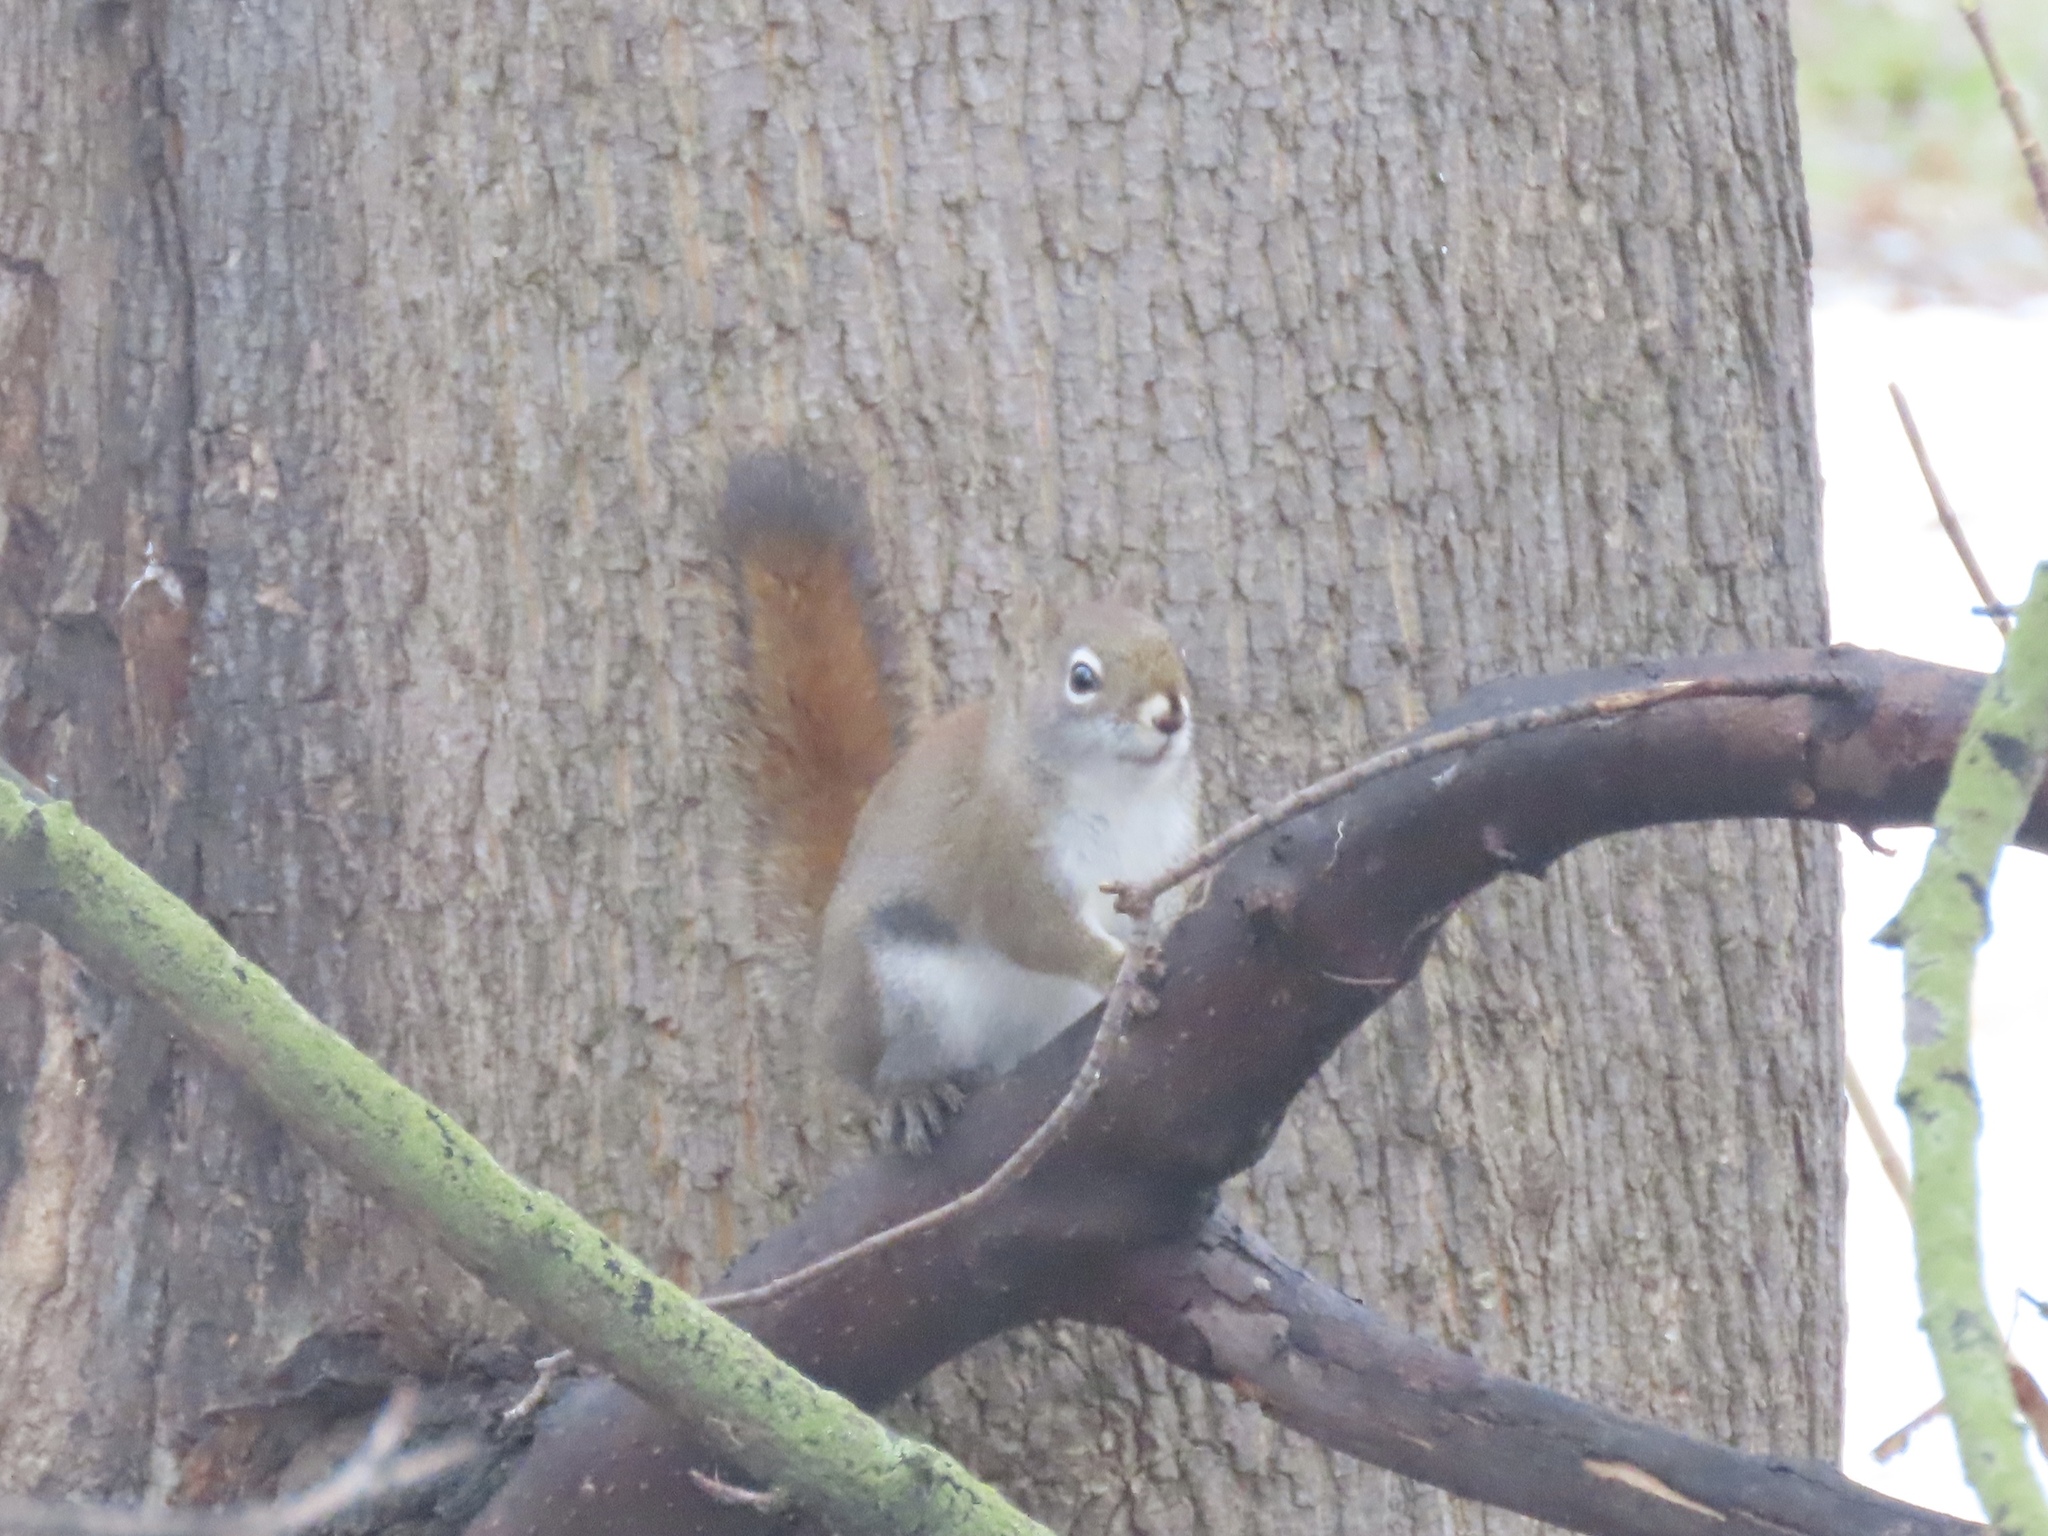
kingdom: Animalia
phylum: Chordata
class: Mammalia
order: Rodentia
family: Sciuridae
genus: Tamiasciurus
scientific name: Tamiasciurus hudsonicus
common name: Red squirrel
